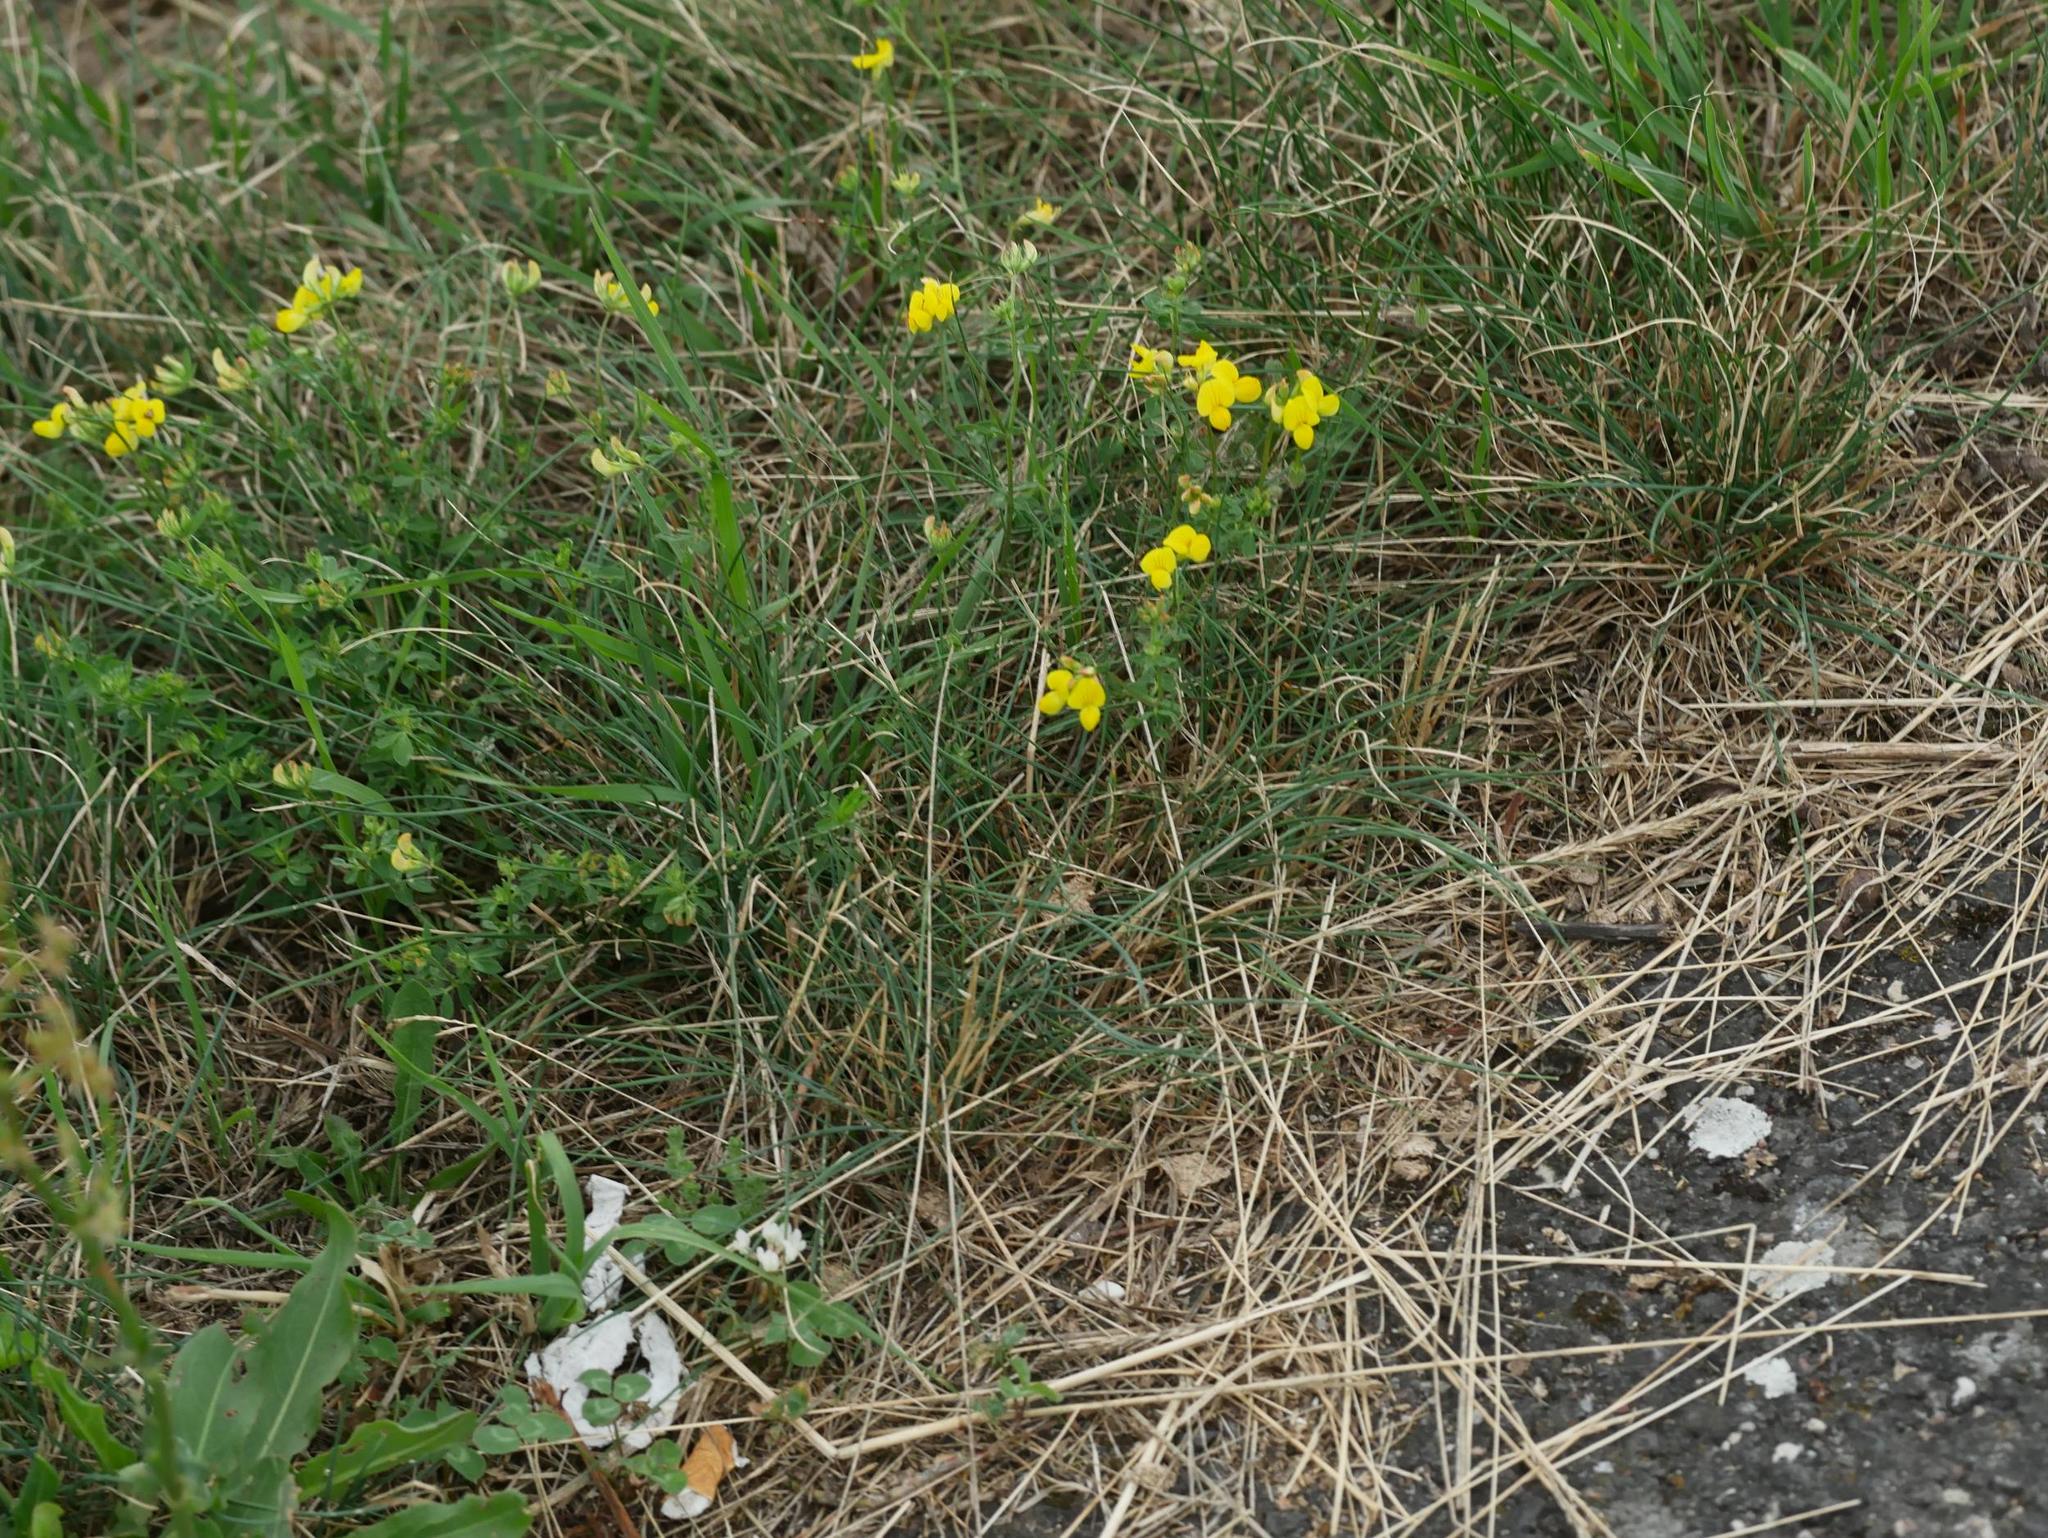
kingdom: Plantae
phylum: Tracheophyta
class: Magnoliopsida
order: Fabales
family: Fabaceae
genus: Lotus
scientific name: Lotus corniculatus
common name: Common bird's-foot-trefoil
